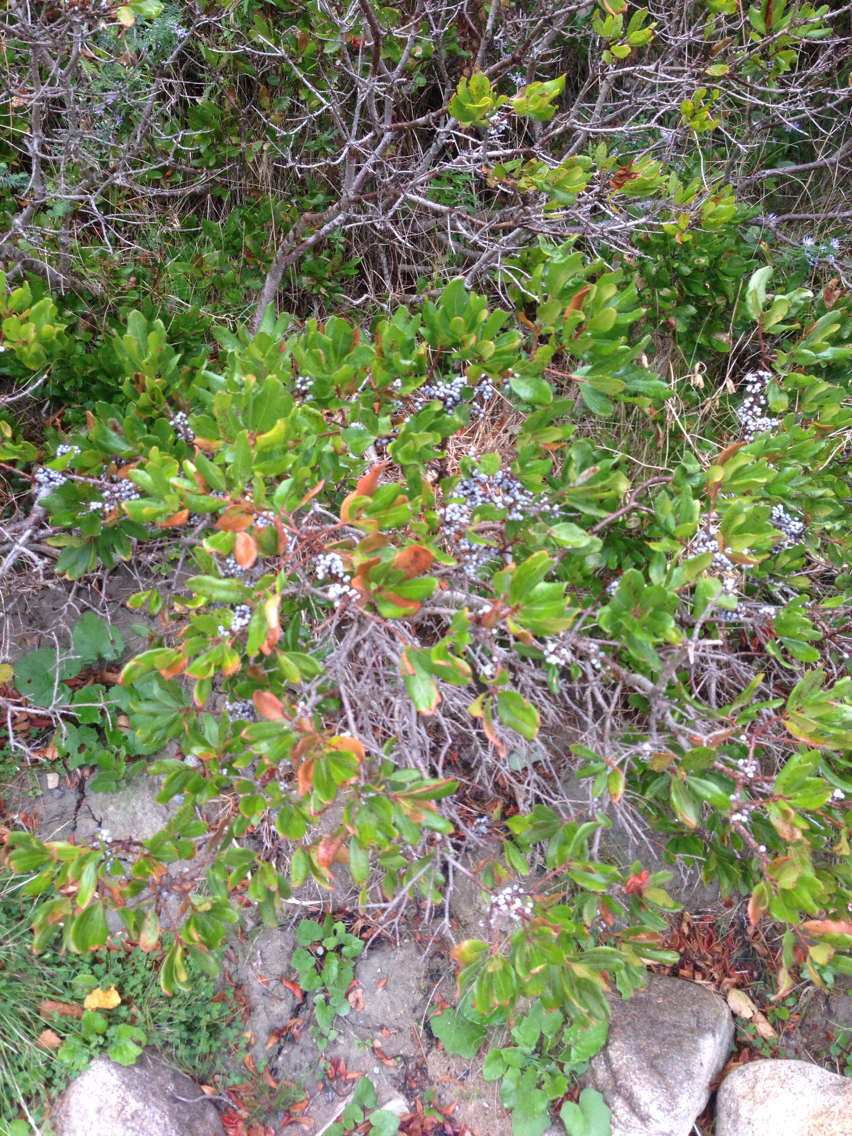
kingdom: Plantae
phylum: Tracheophyta
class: Magnoliopsida
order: Fagales
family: Myricaceae
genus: Morella
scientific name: Morella pensylvanica
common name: Northern bayberry
